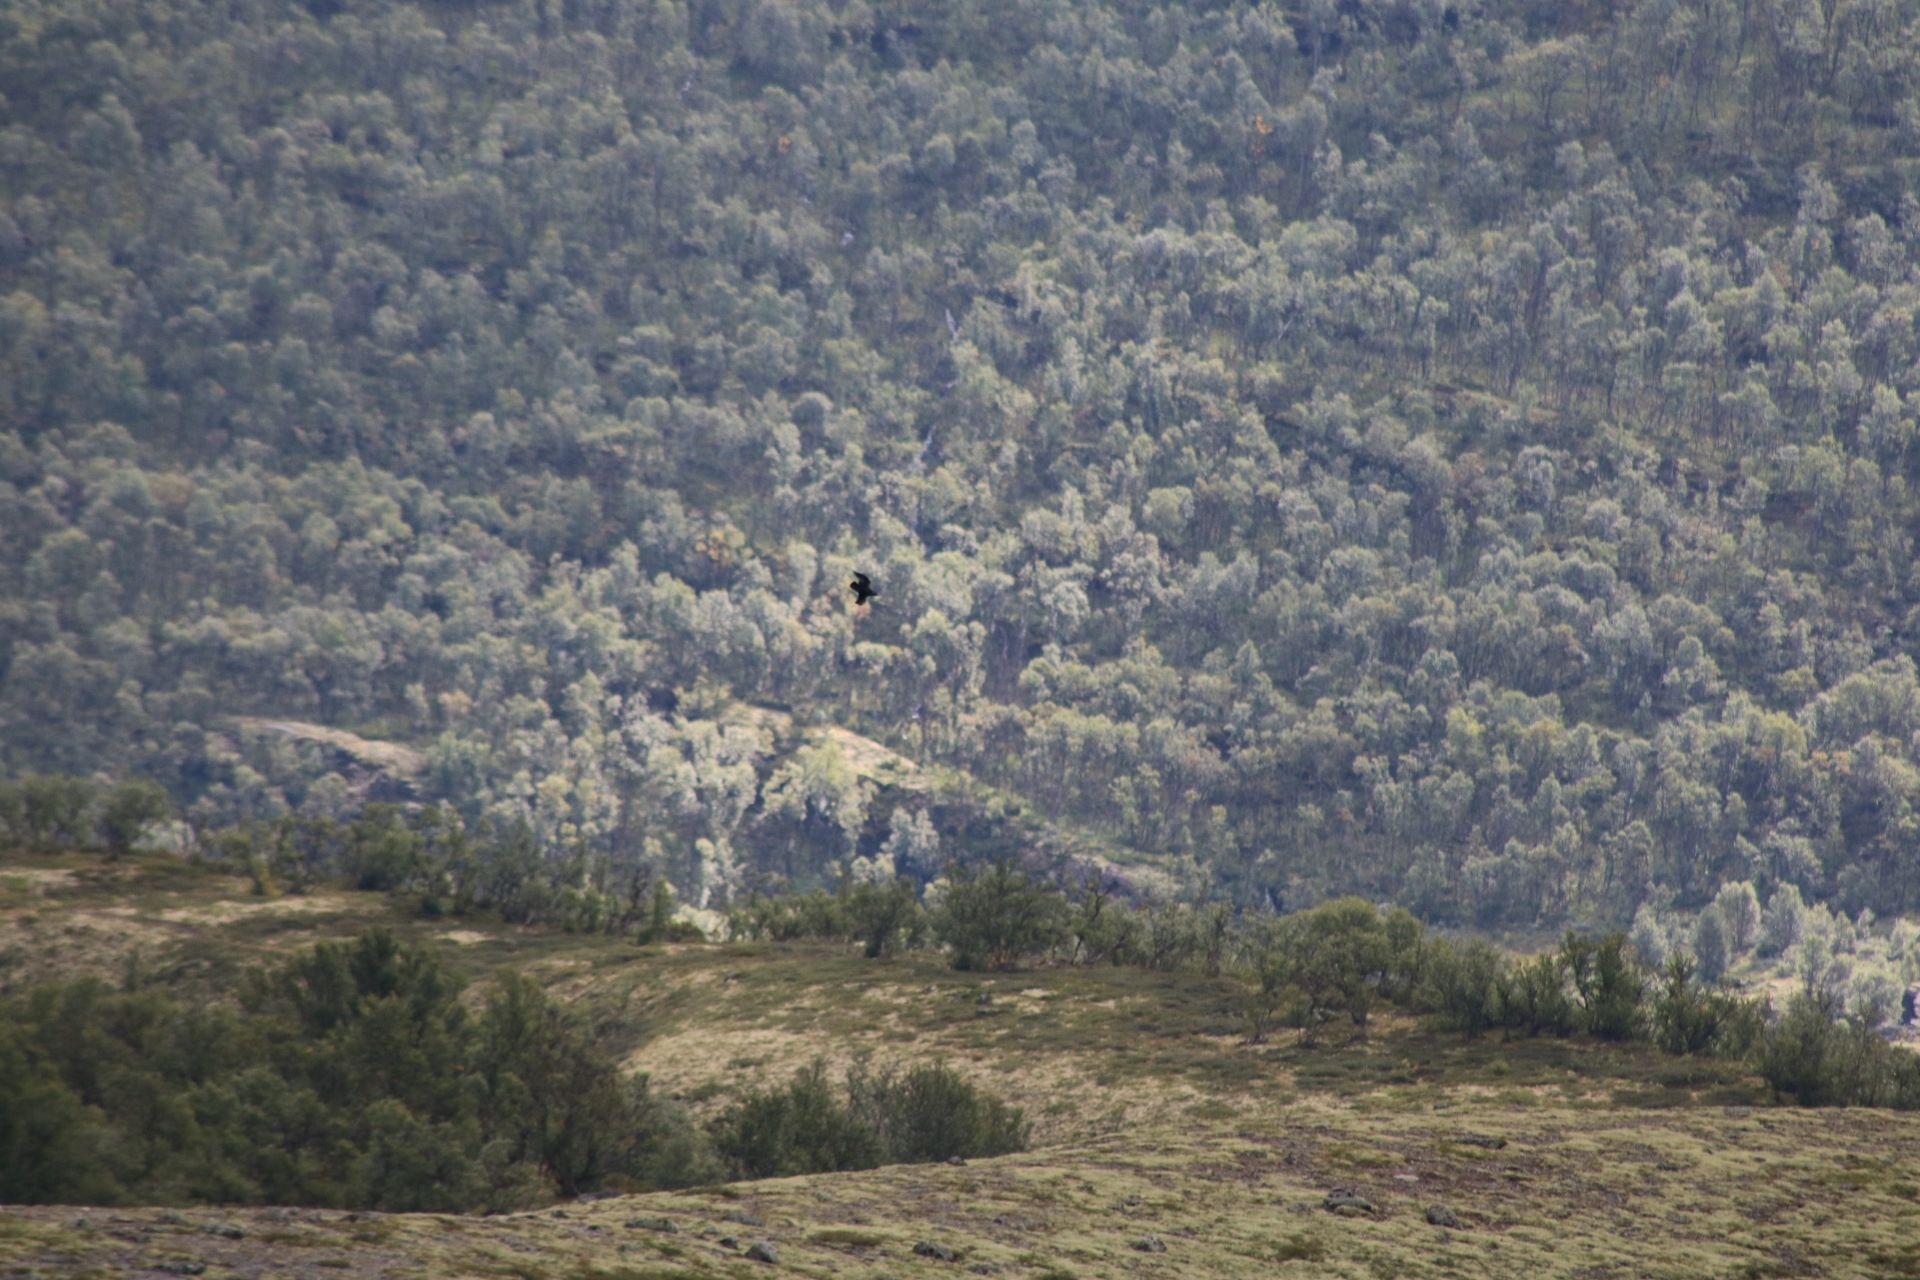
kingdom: Animalia
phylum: Chordata
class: Aves
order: Passeriformes
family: Corvidae
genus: Corvus
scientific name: Corvus corax
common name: Common raven
